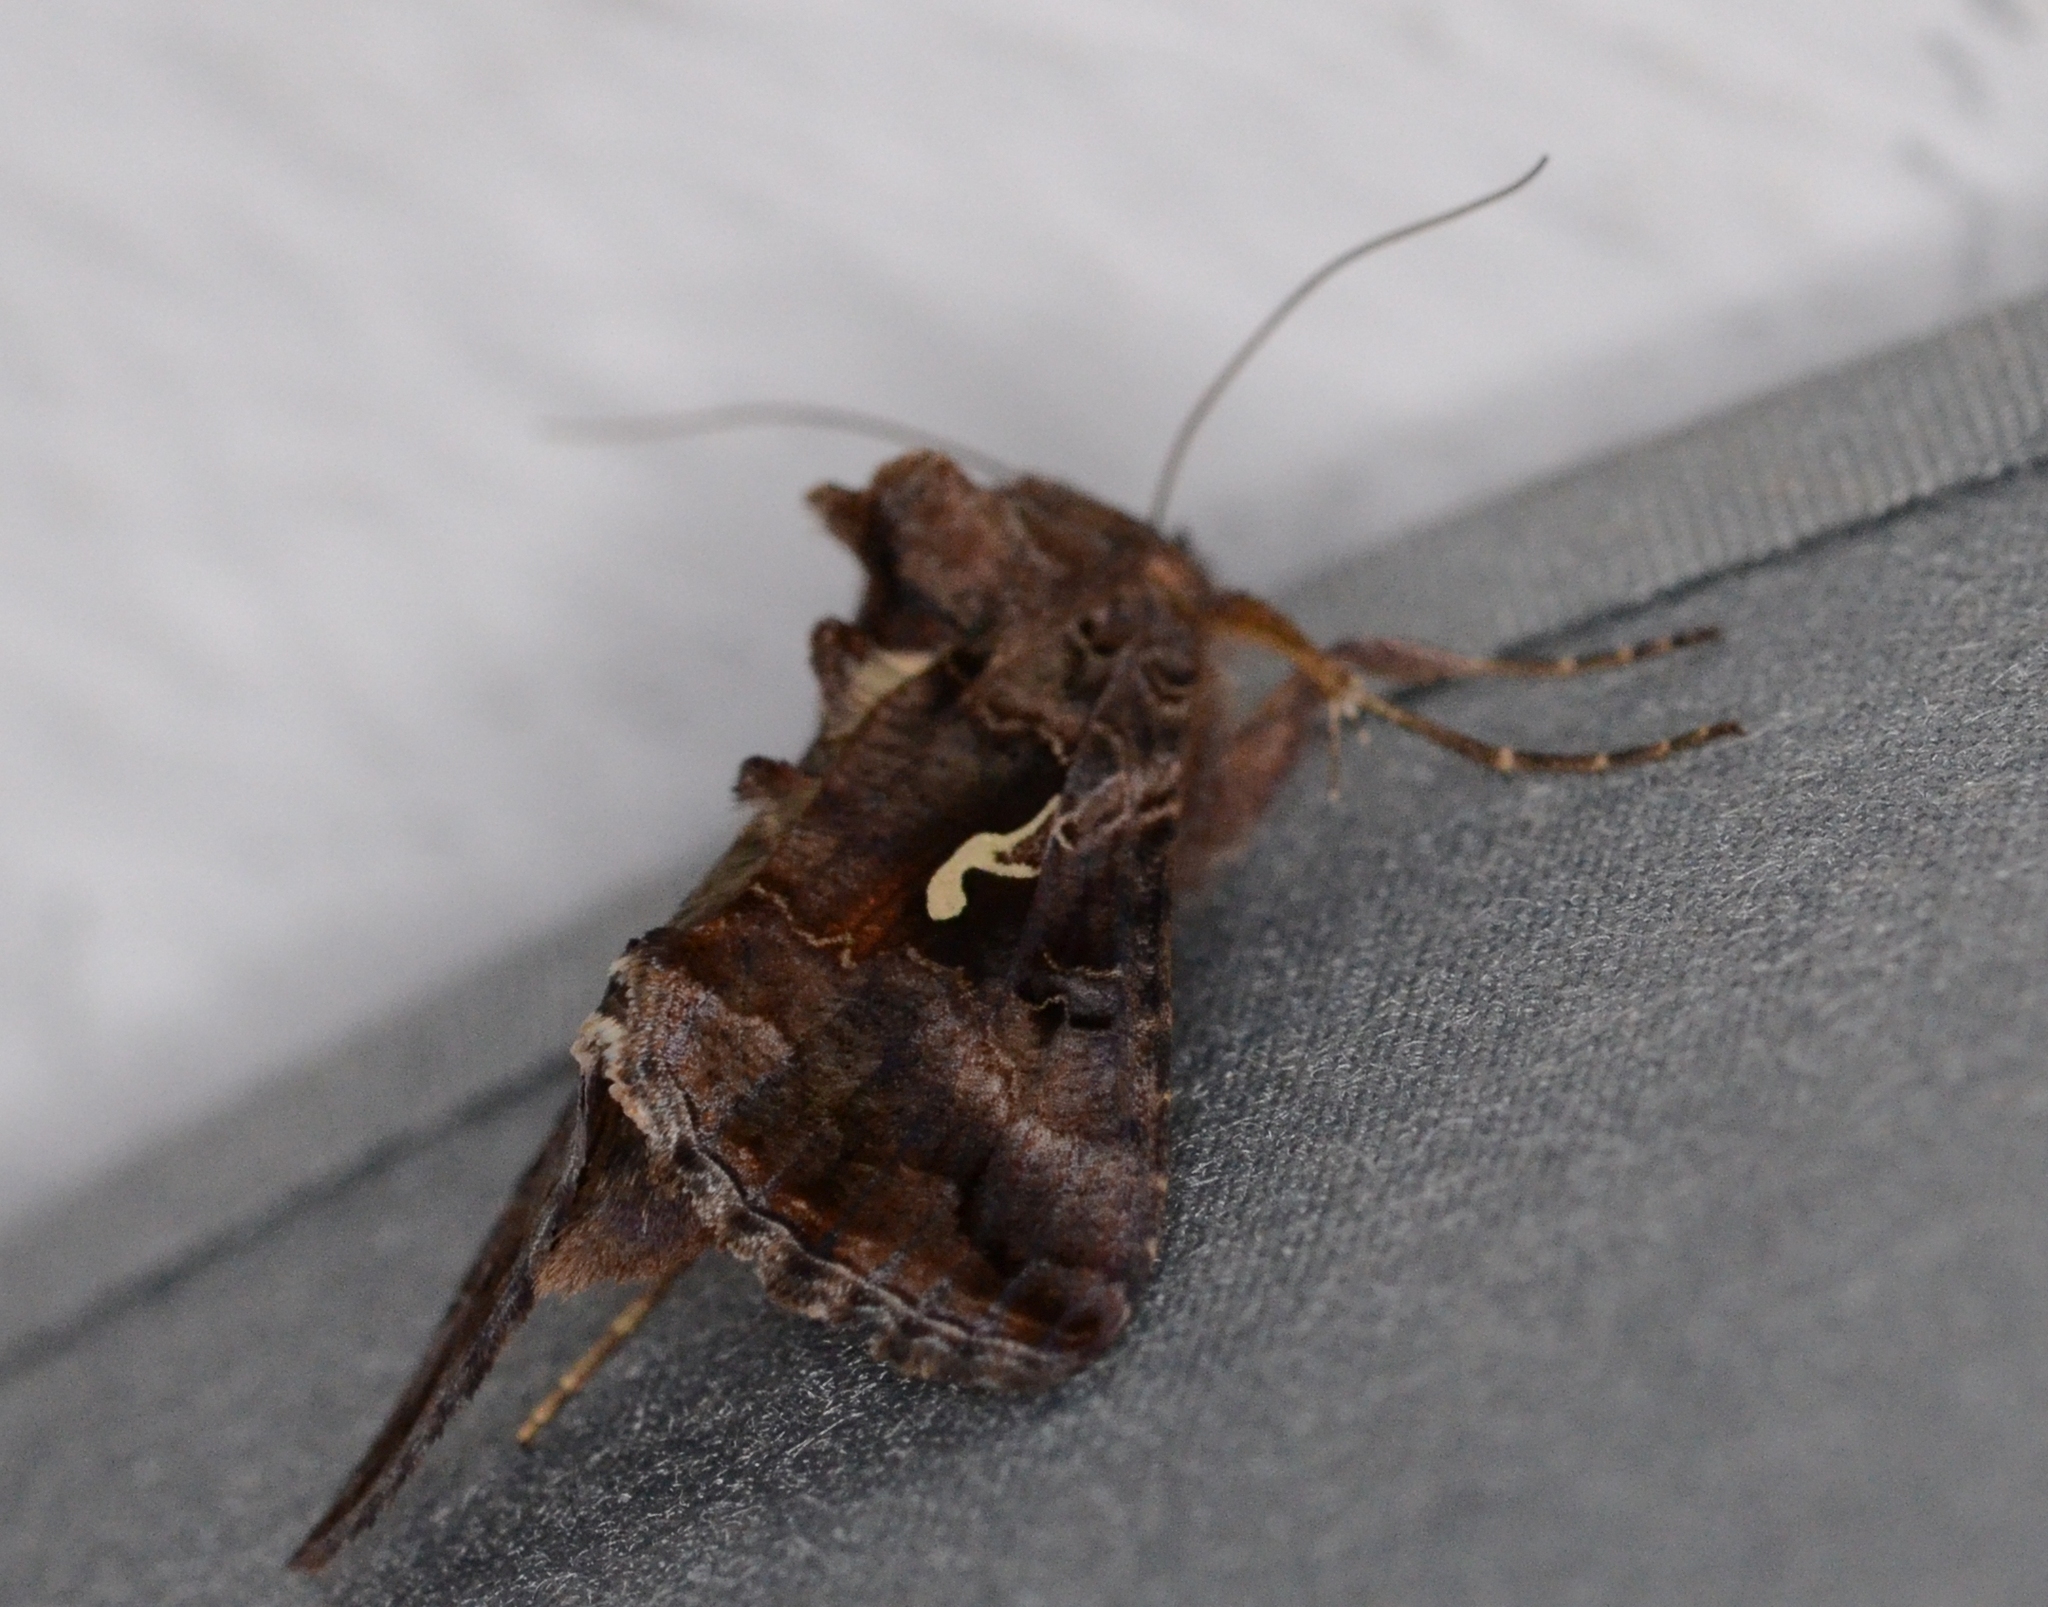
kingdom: Animalia
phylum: Arthropoda
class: Insecta
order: Lepidoptera
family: Noctuidae
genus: Autographa
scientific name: Autographa gamma
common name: Silver y
